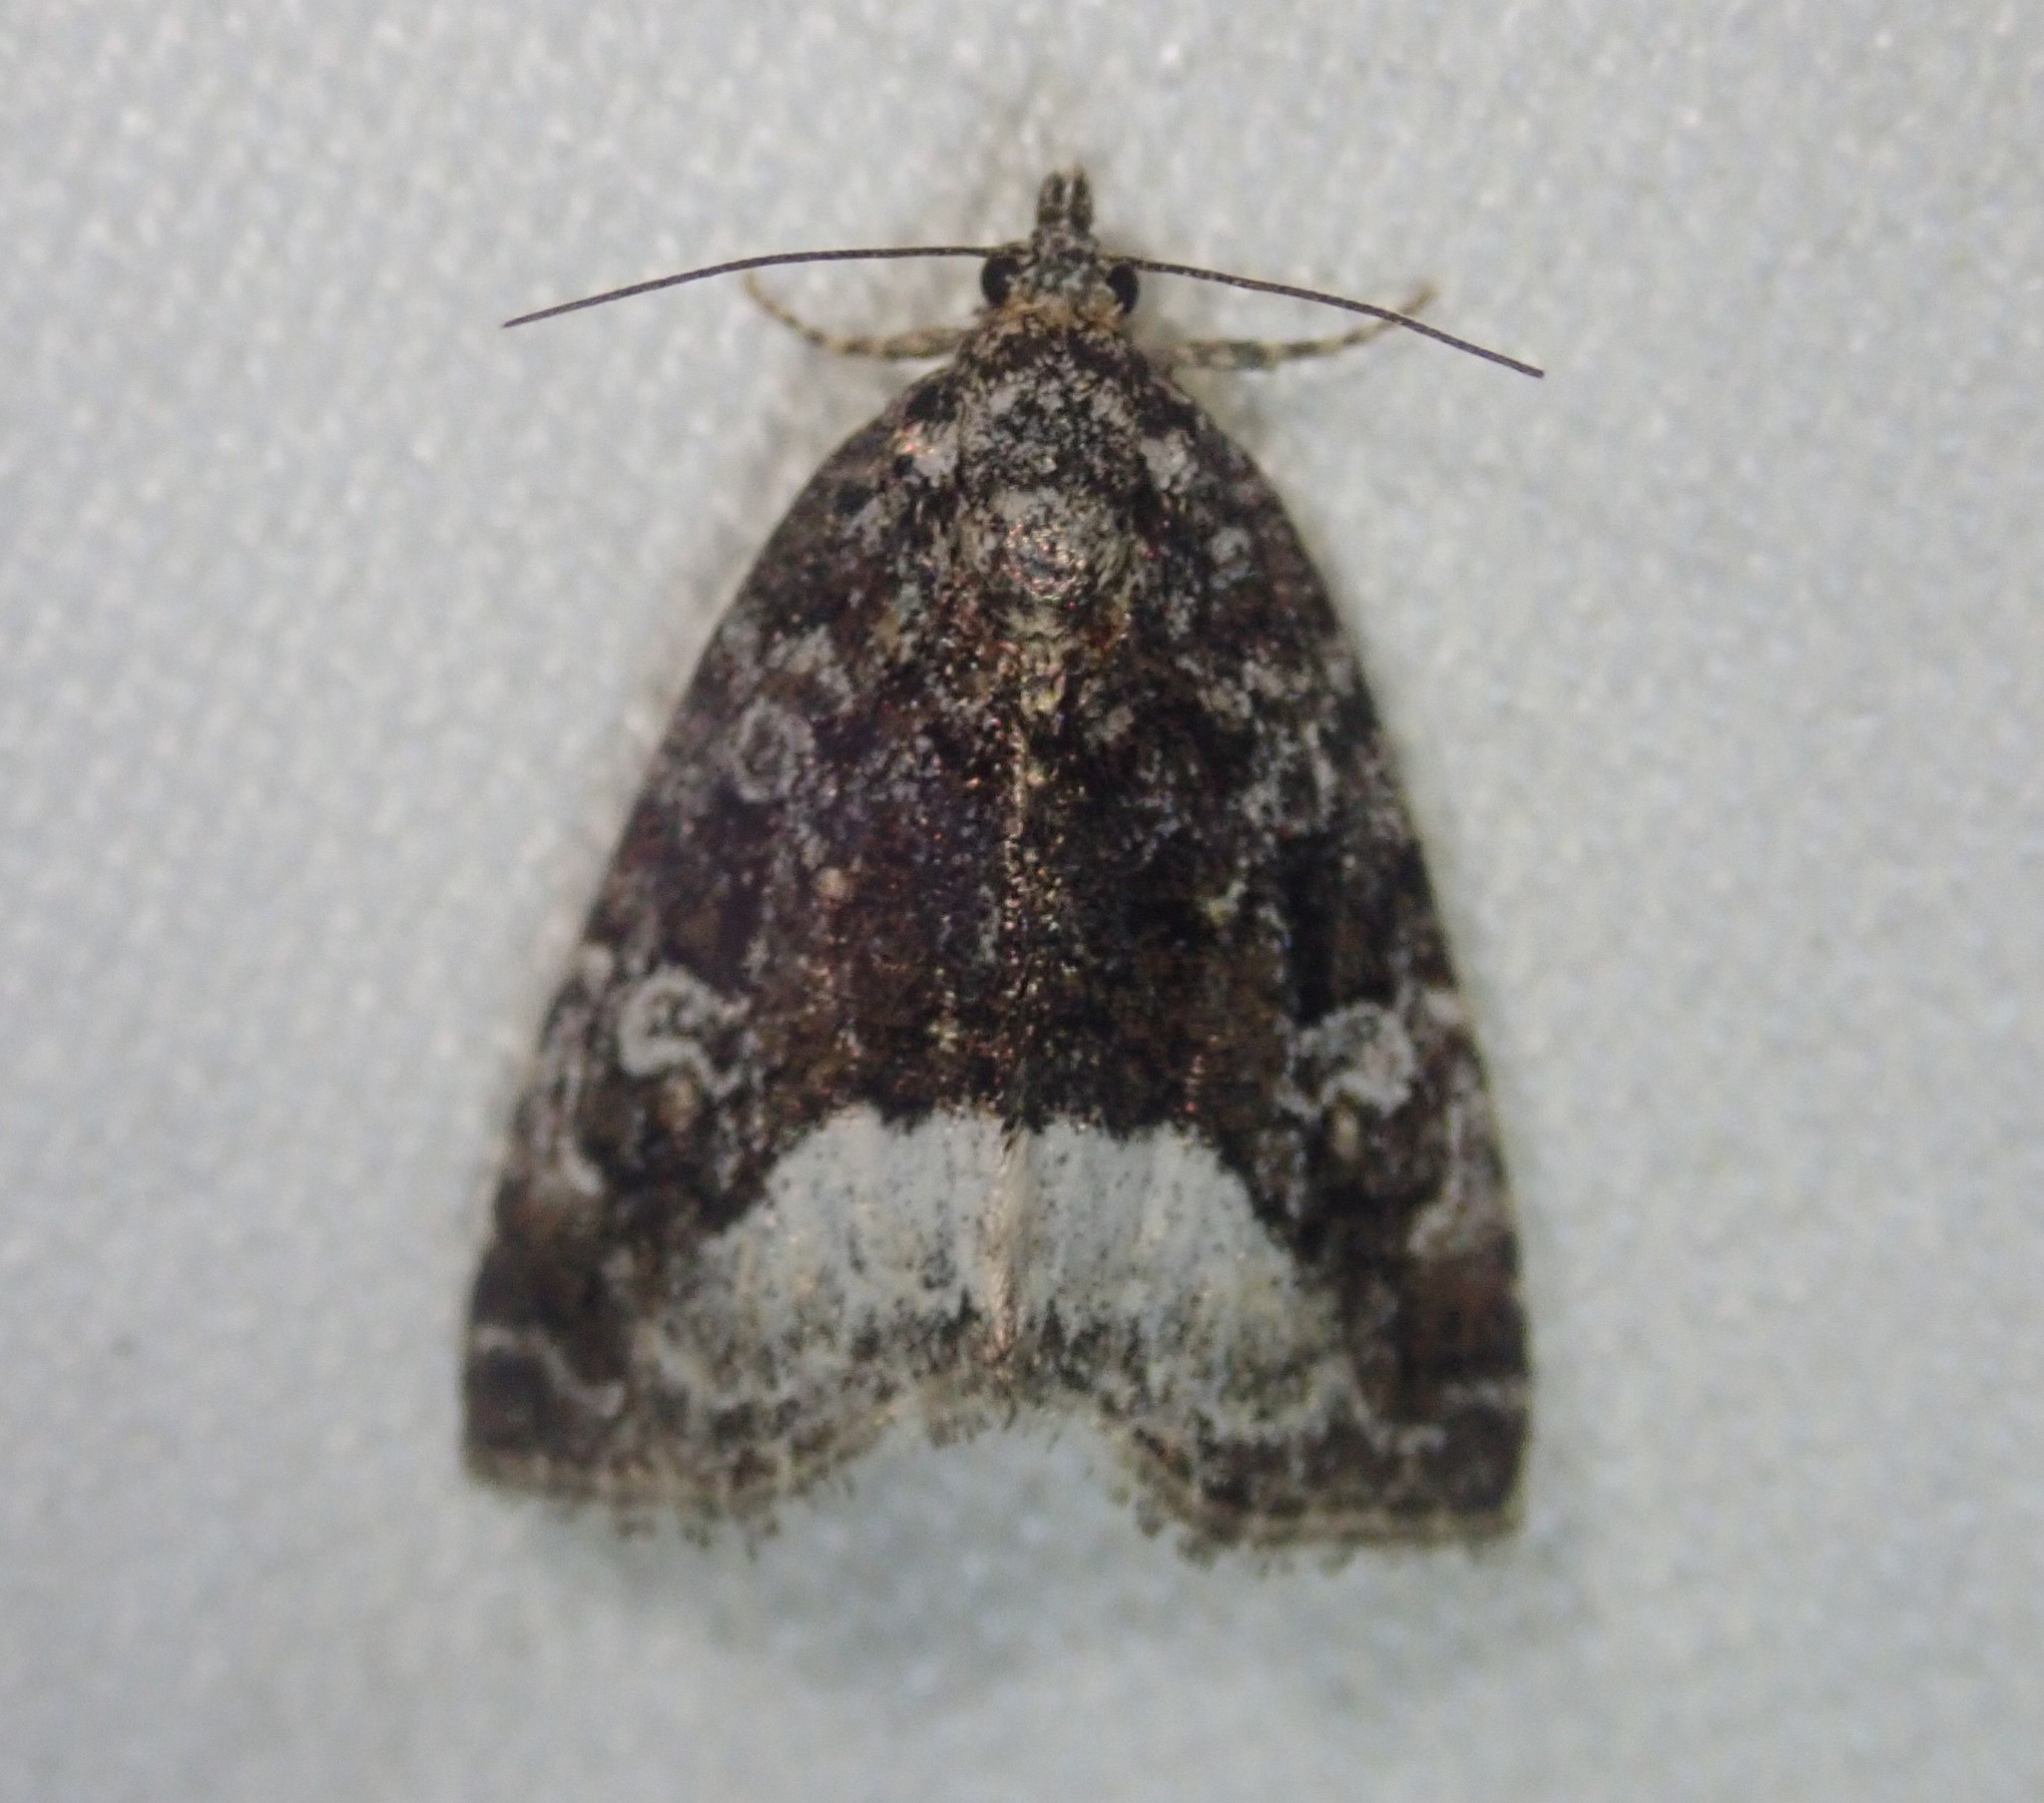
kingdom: Animalia
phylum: Arthropoda
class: Insecta
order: Lepidoptera
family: Noctuidae
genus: Deltote
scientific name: Deltote pygarga
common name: Marbled white spot
